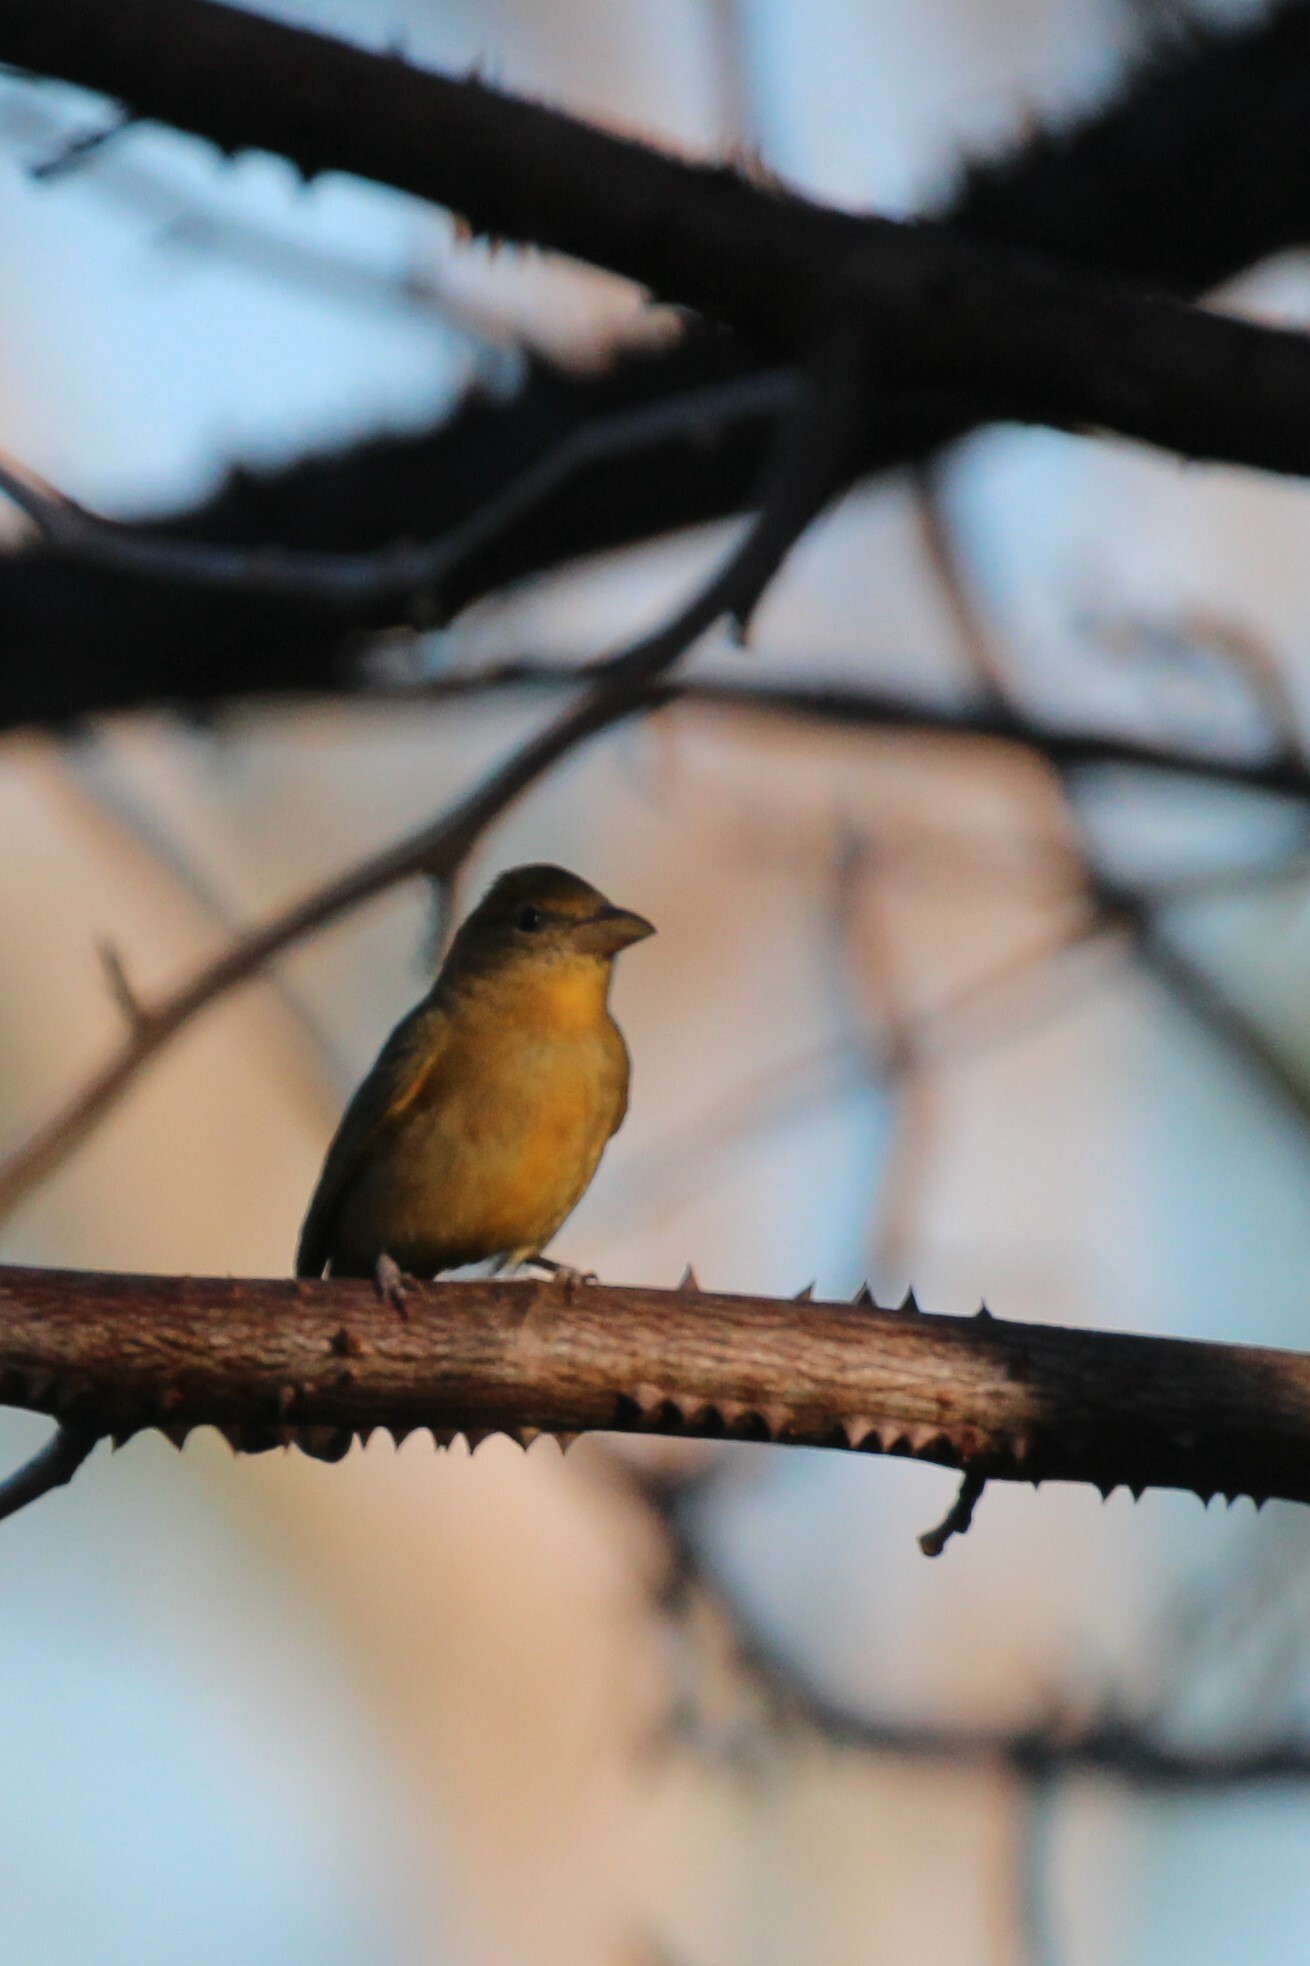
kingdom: Animalia
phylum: Chordata
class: Aves
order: Passeriformes
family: Cardinalidae
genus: Piranga
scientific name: Piranga rubra
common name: Summer tanager
